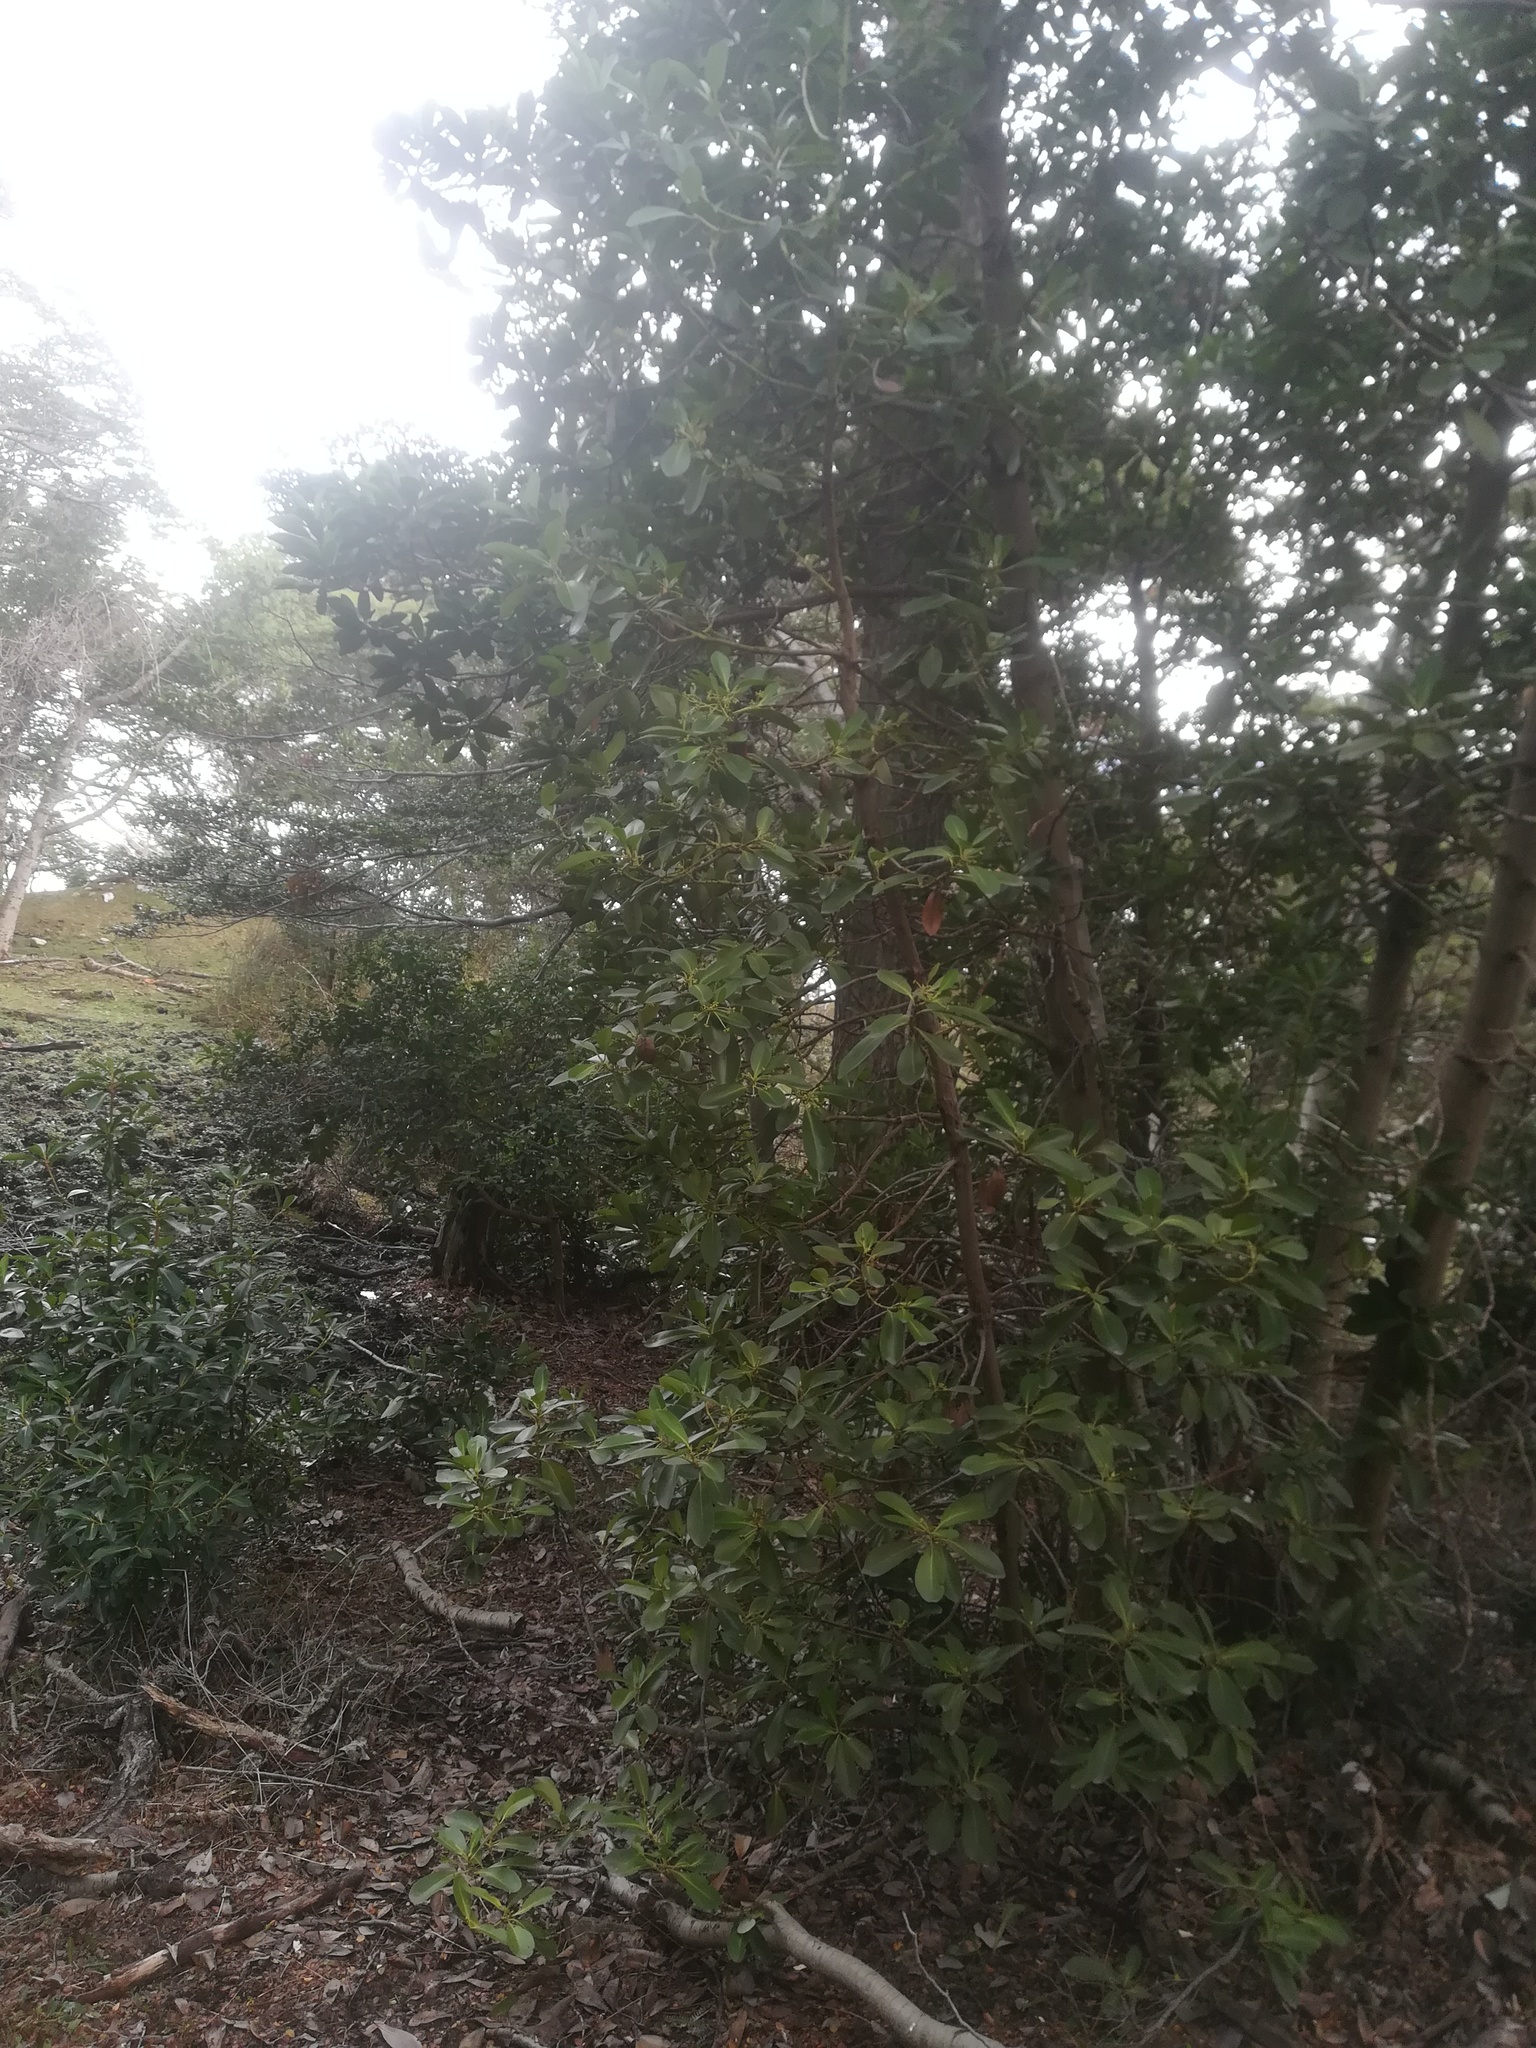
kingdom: Plantae
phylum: Tracheophyta
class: Magnoliopsida
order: Canellales
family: Winteraceae
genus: Drimys
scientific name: Drimys winteri
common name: Winter's-bark
